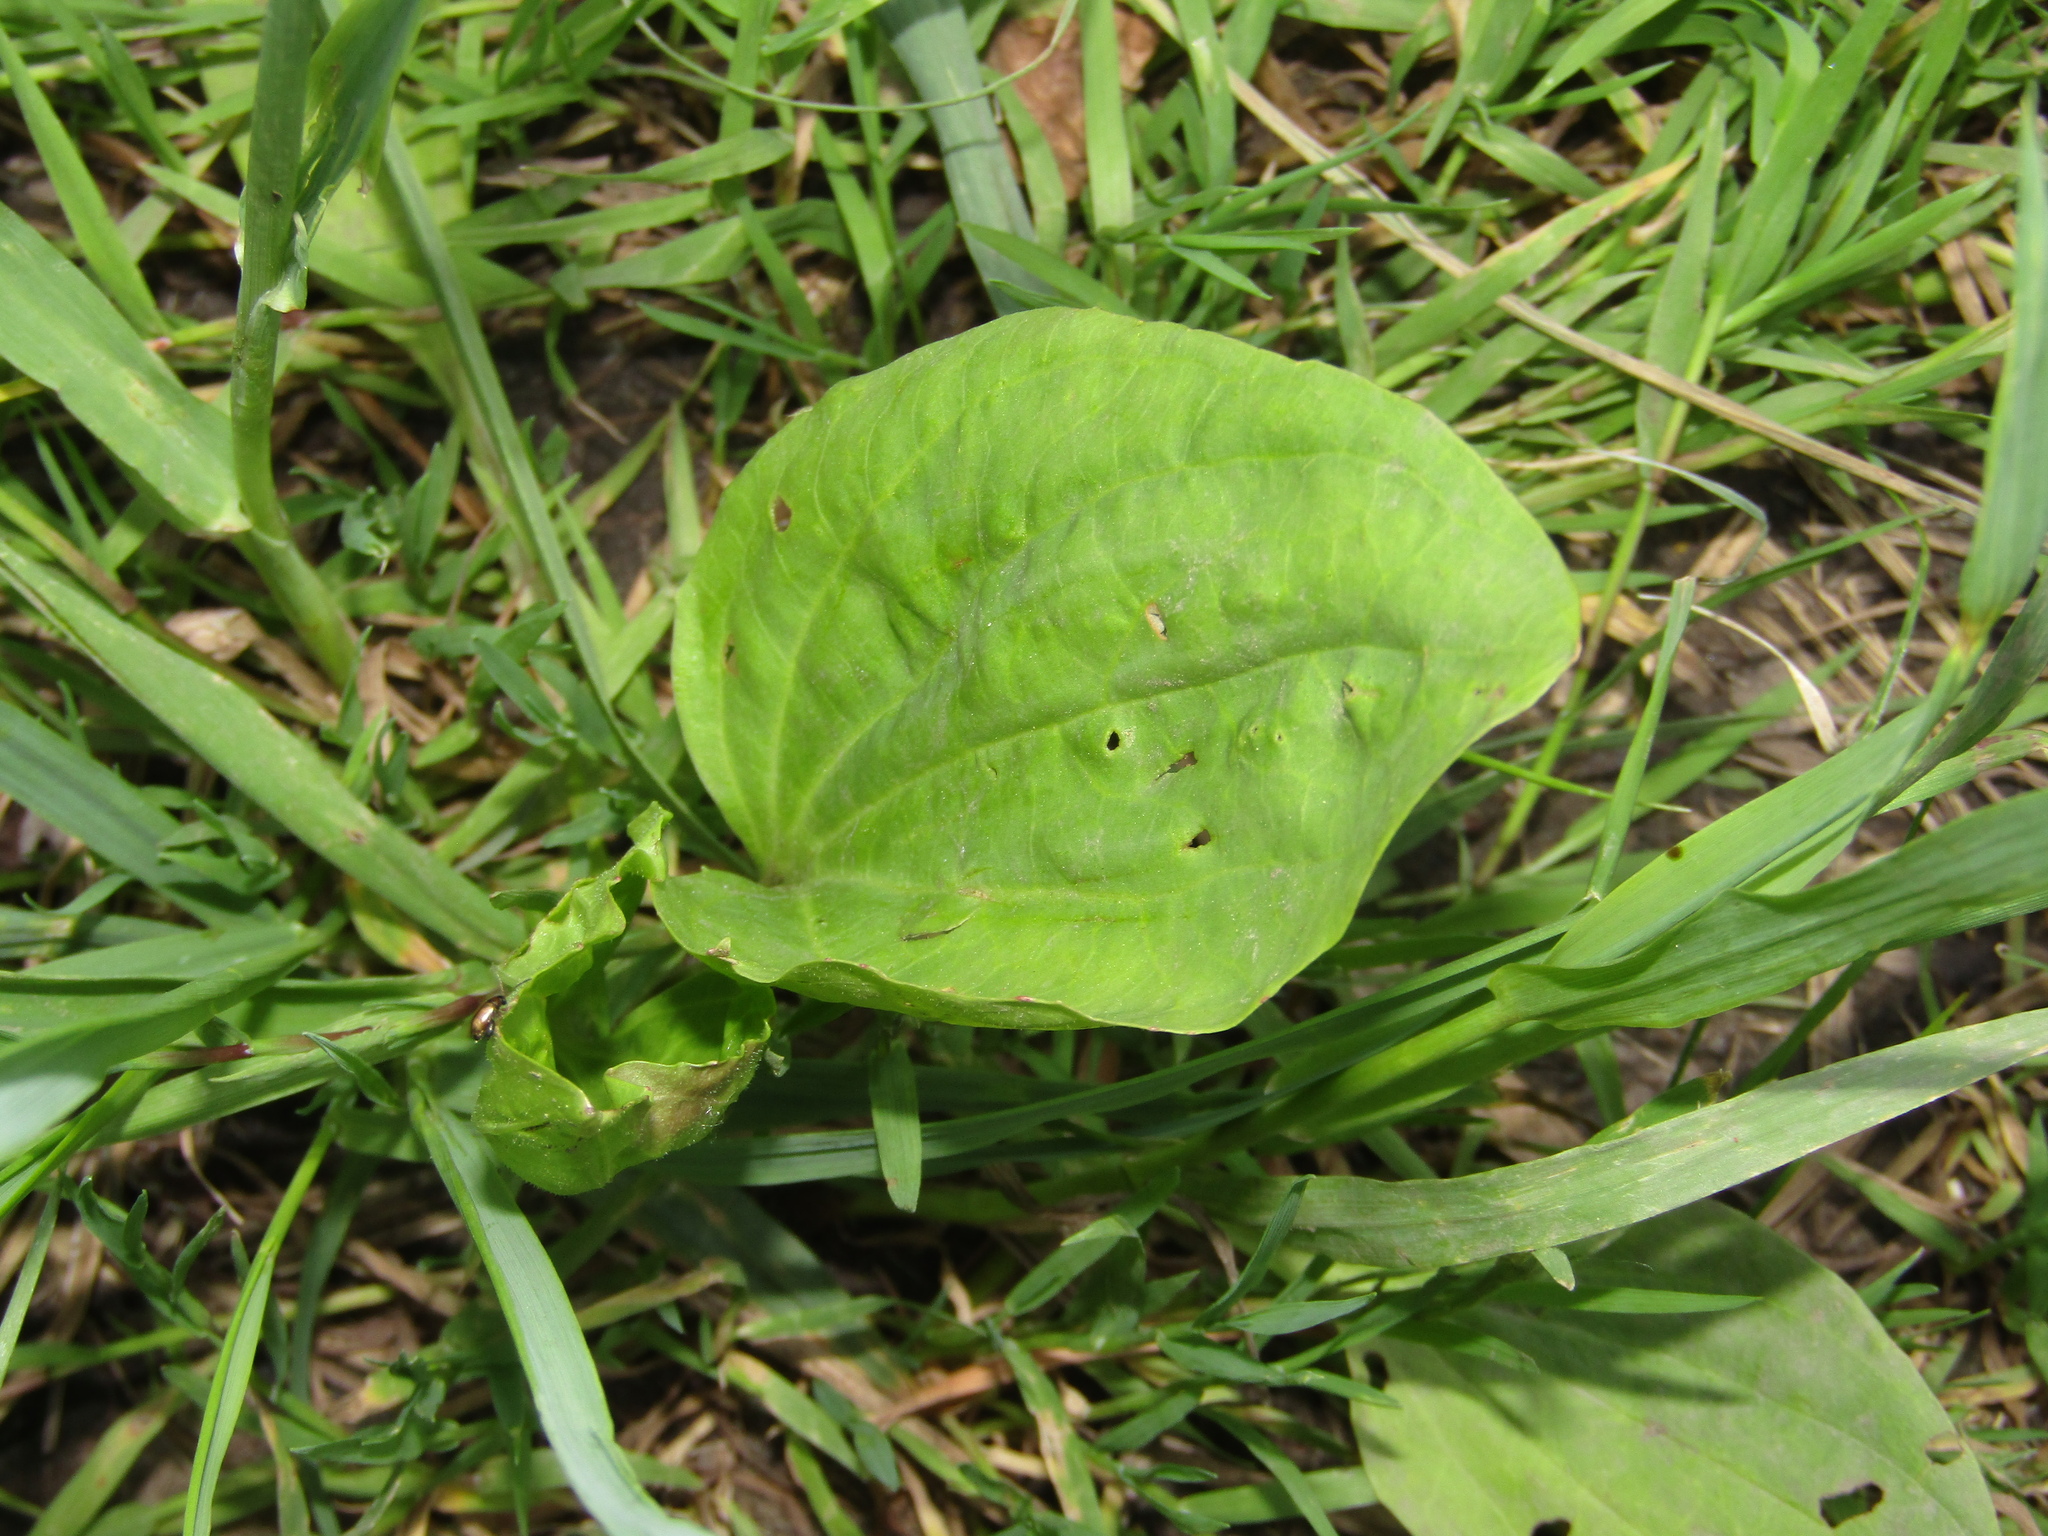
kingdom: Plantae
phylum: Tracheophyta
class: Magnoliopsida
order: Lamiales
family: Plantaginaceae
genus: Plantago
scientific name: Plantago major
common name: Common plantain
